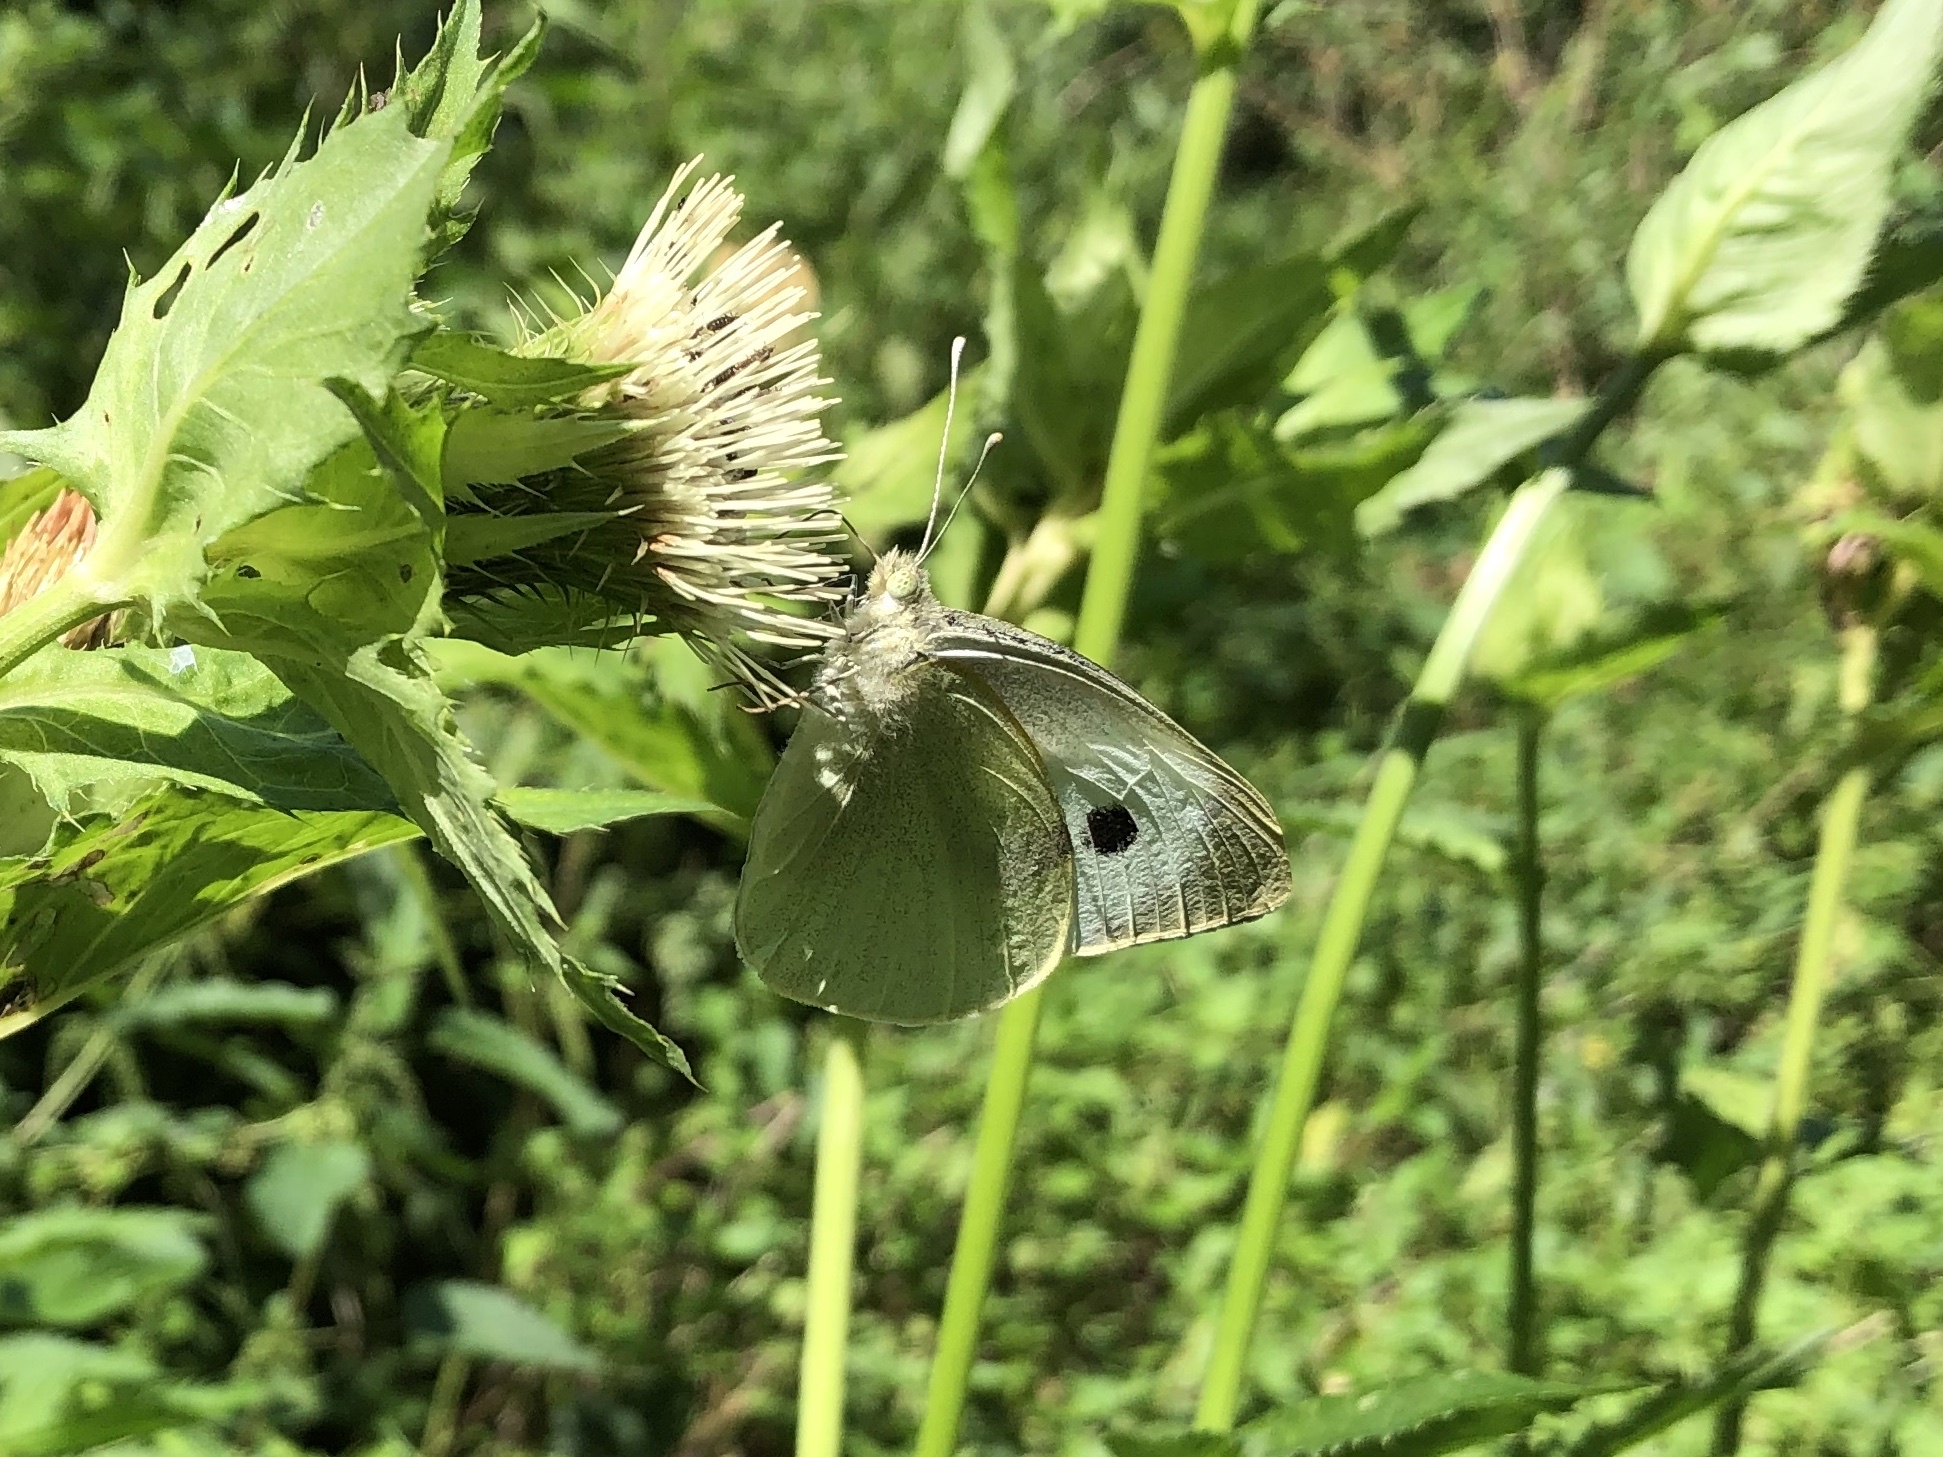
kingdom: Animalia
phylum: Arthropoda
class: Insecta
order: Lepidoptera
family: Pieridae
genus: Pieris
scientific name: Pieris brassicae
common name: Large white
